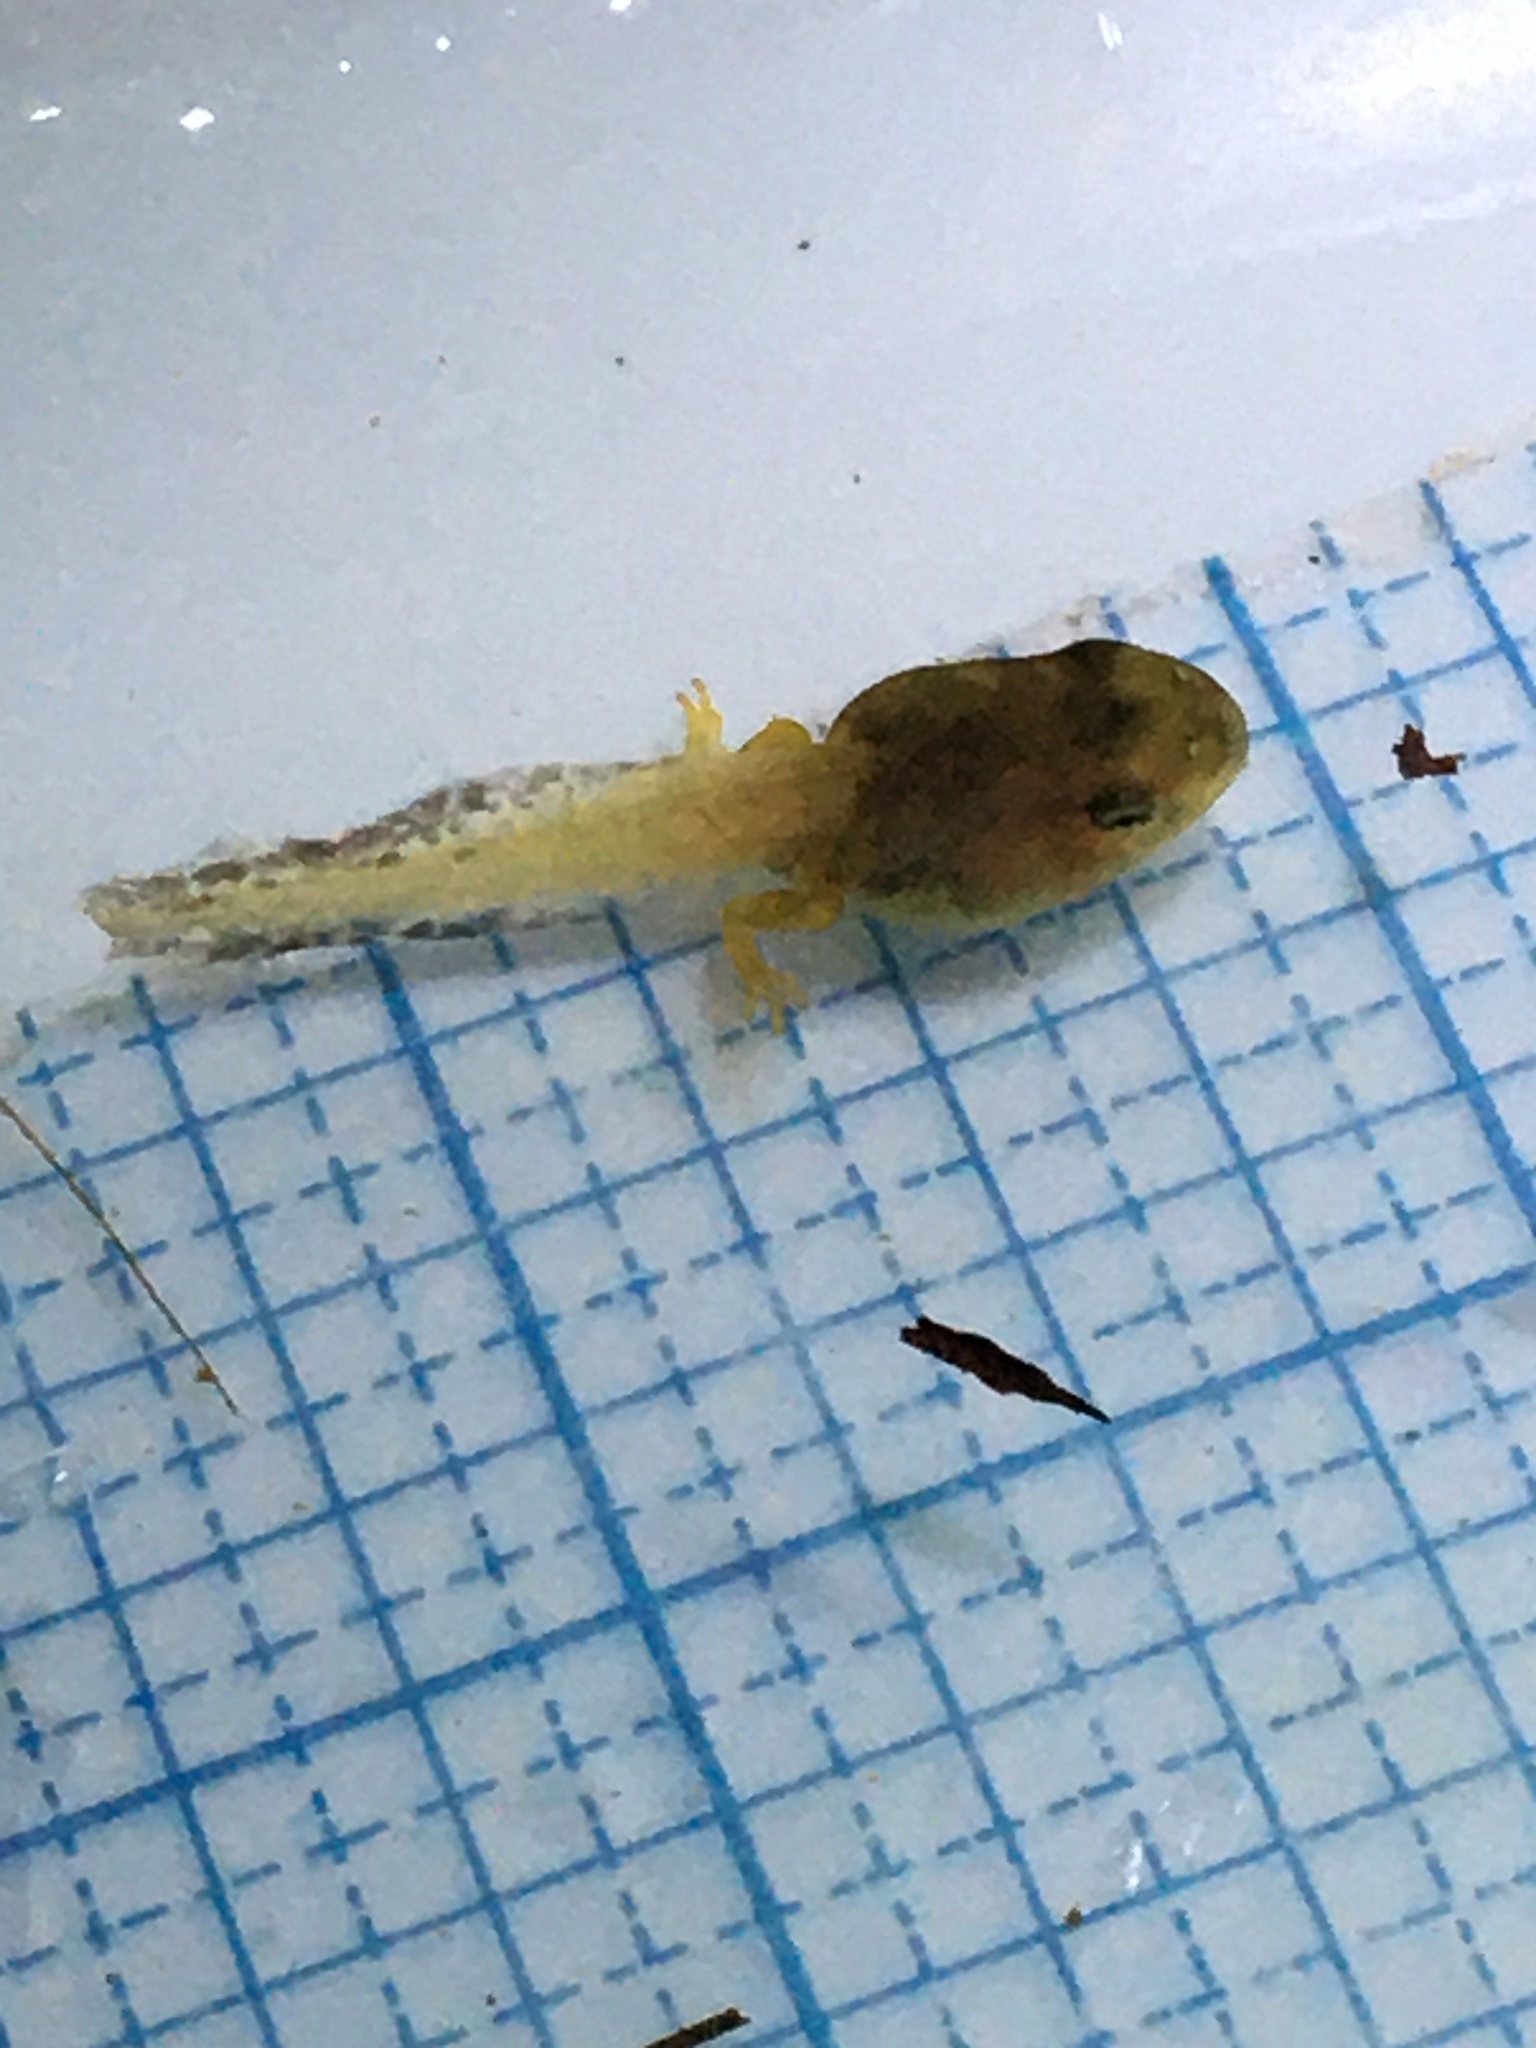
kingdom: Animalia
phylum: Chordata
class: Amphibia
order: Anura
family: Hylidae
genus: Pseudacris
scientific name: Pseudacris crucifer
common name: Spring peeper
